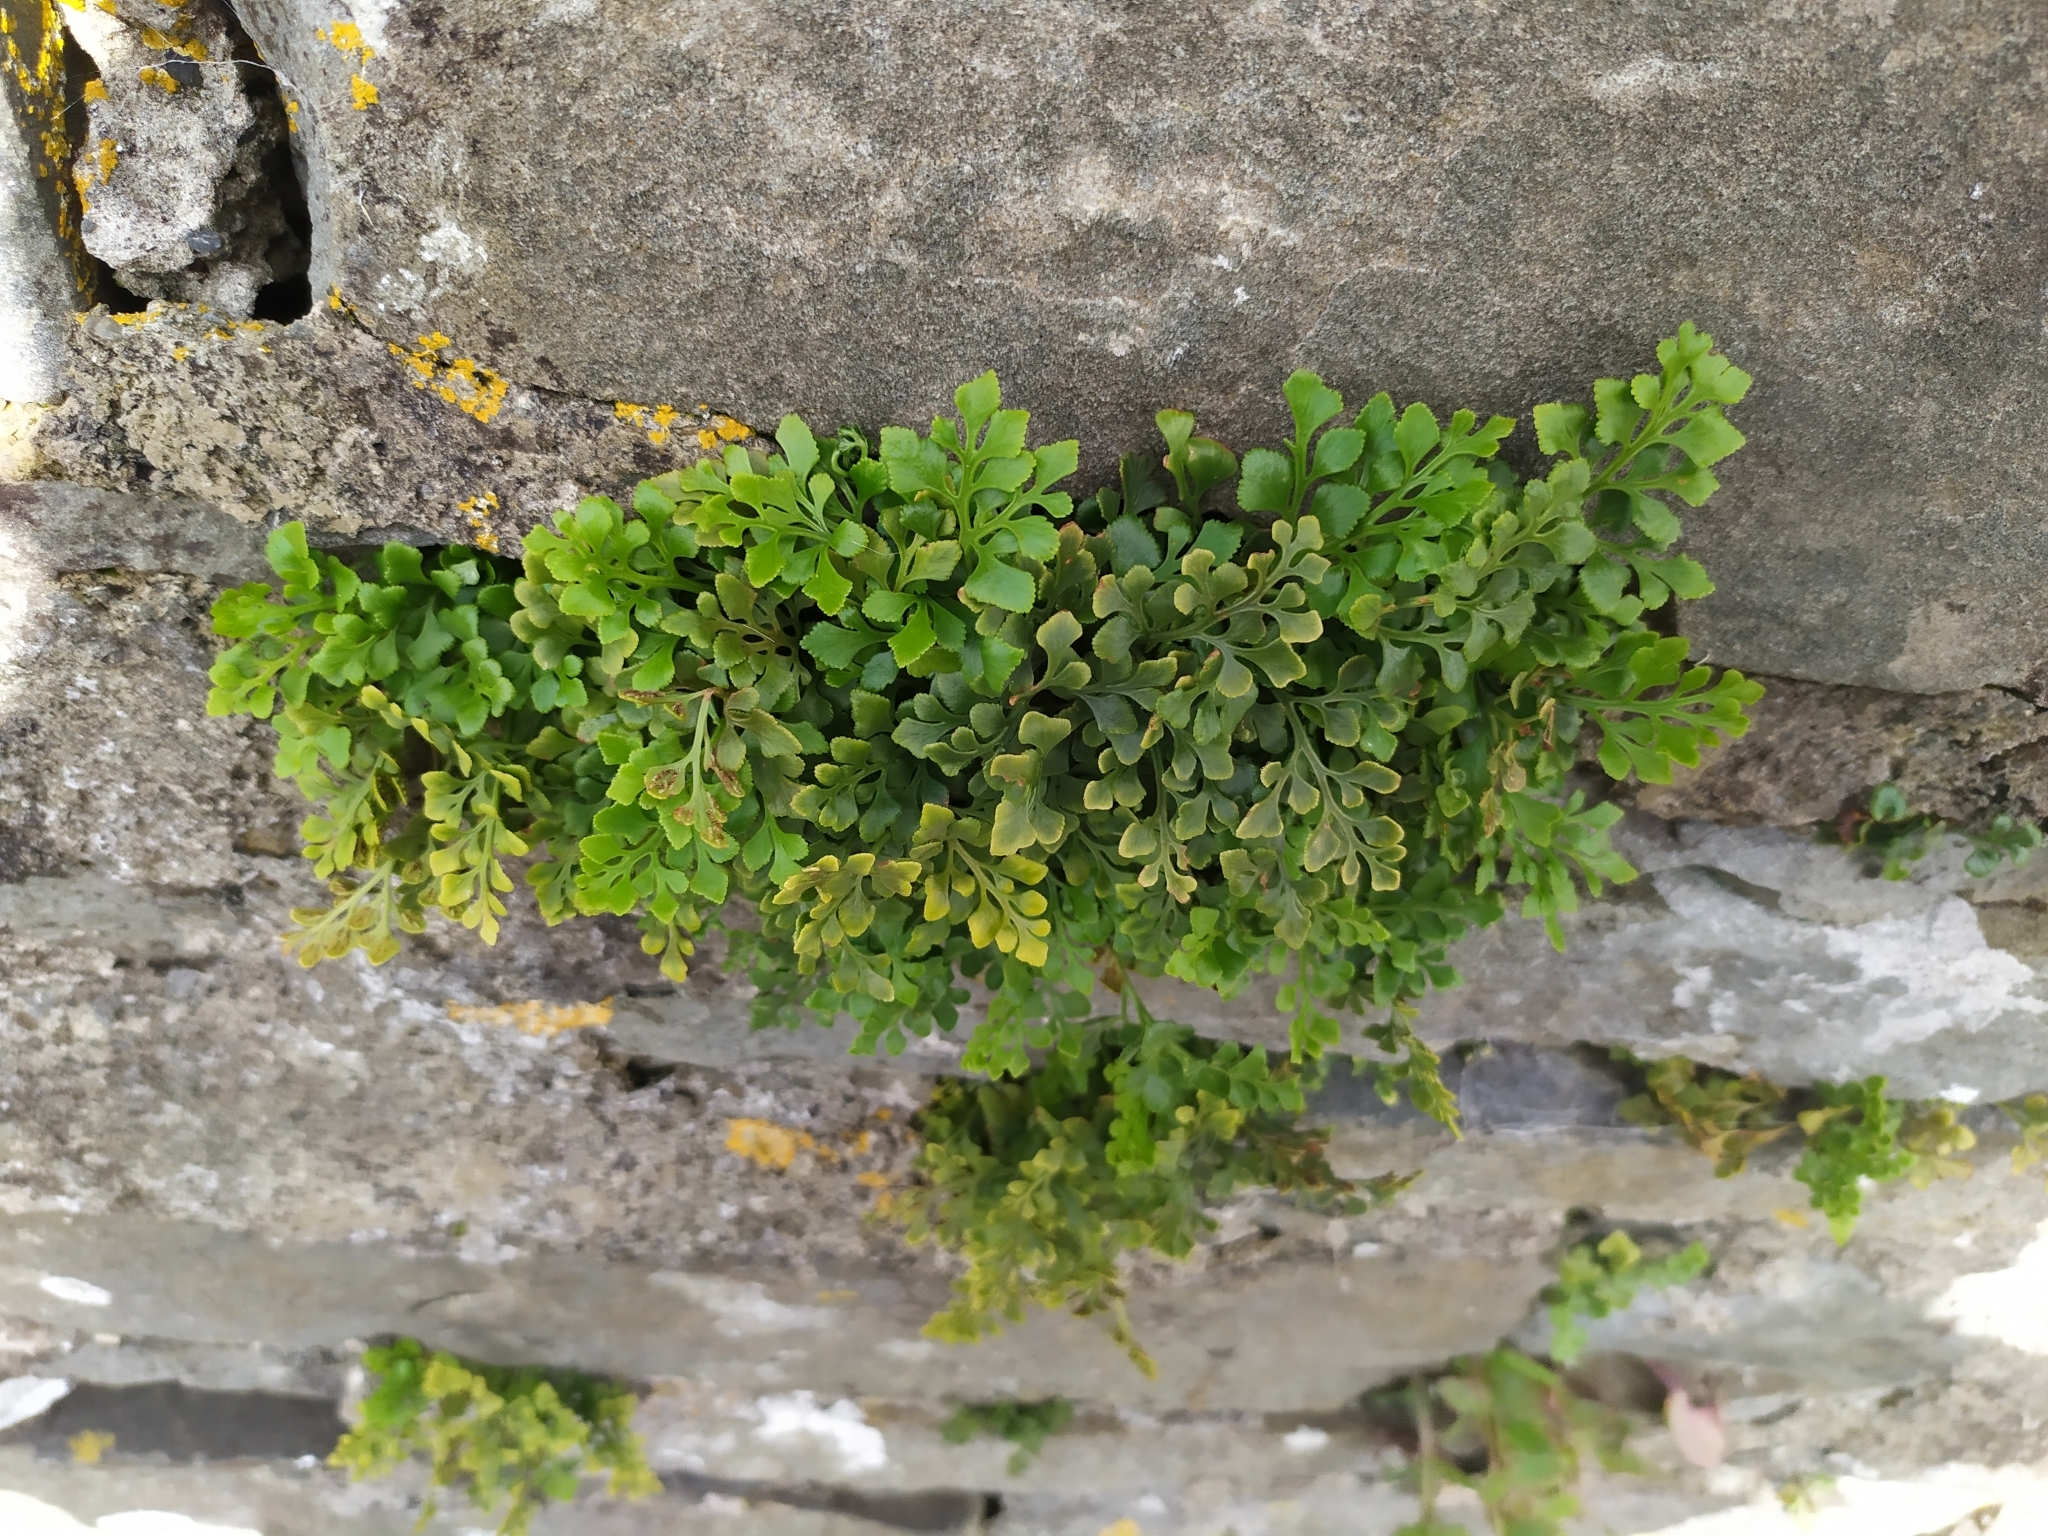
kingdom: Plantae
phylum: Tracheophyta
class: Polypodiopsida
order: Polypodiales
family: Aspleniaceae
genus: Asplenium
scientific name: Asplenium ruta-muraria
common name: Wall-rue
